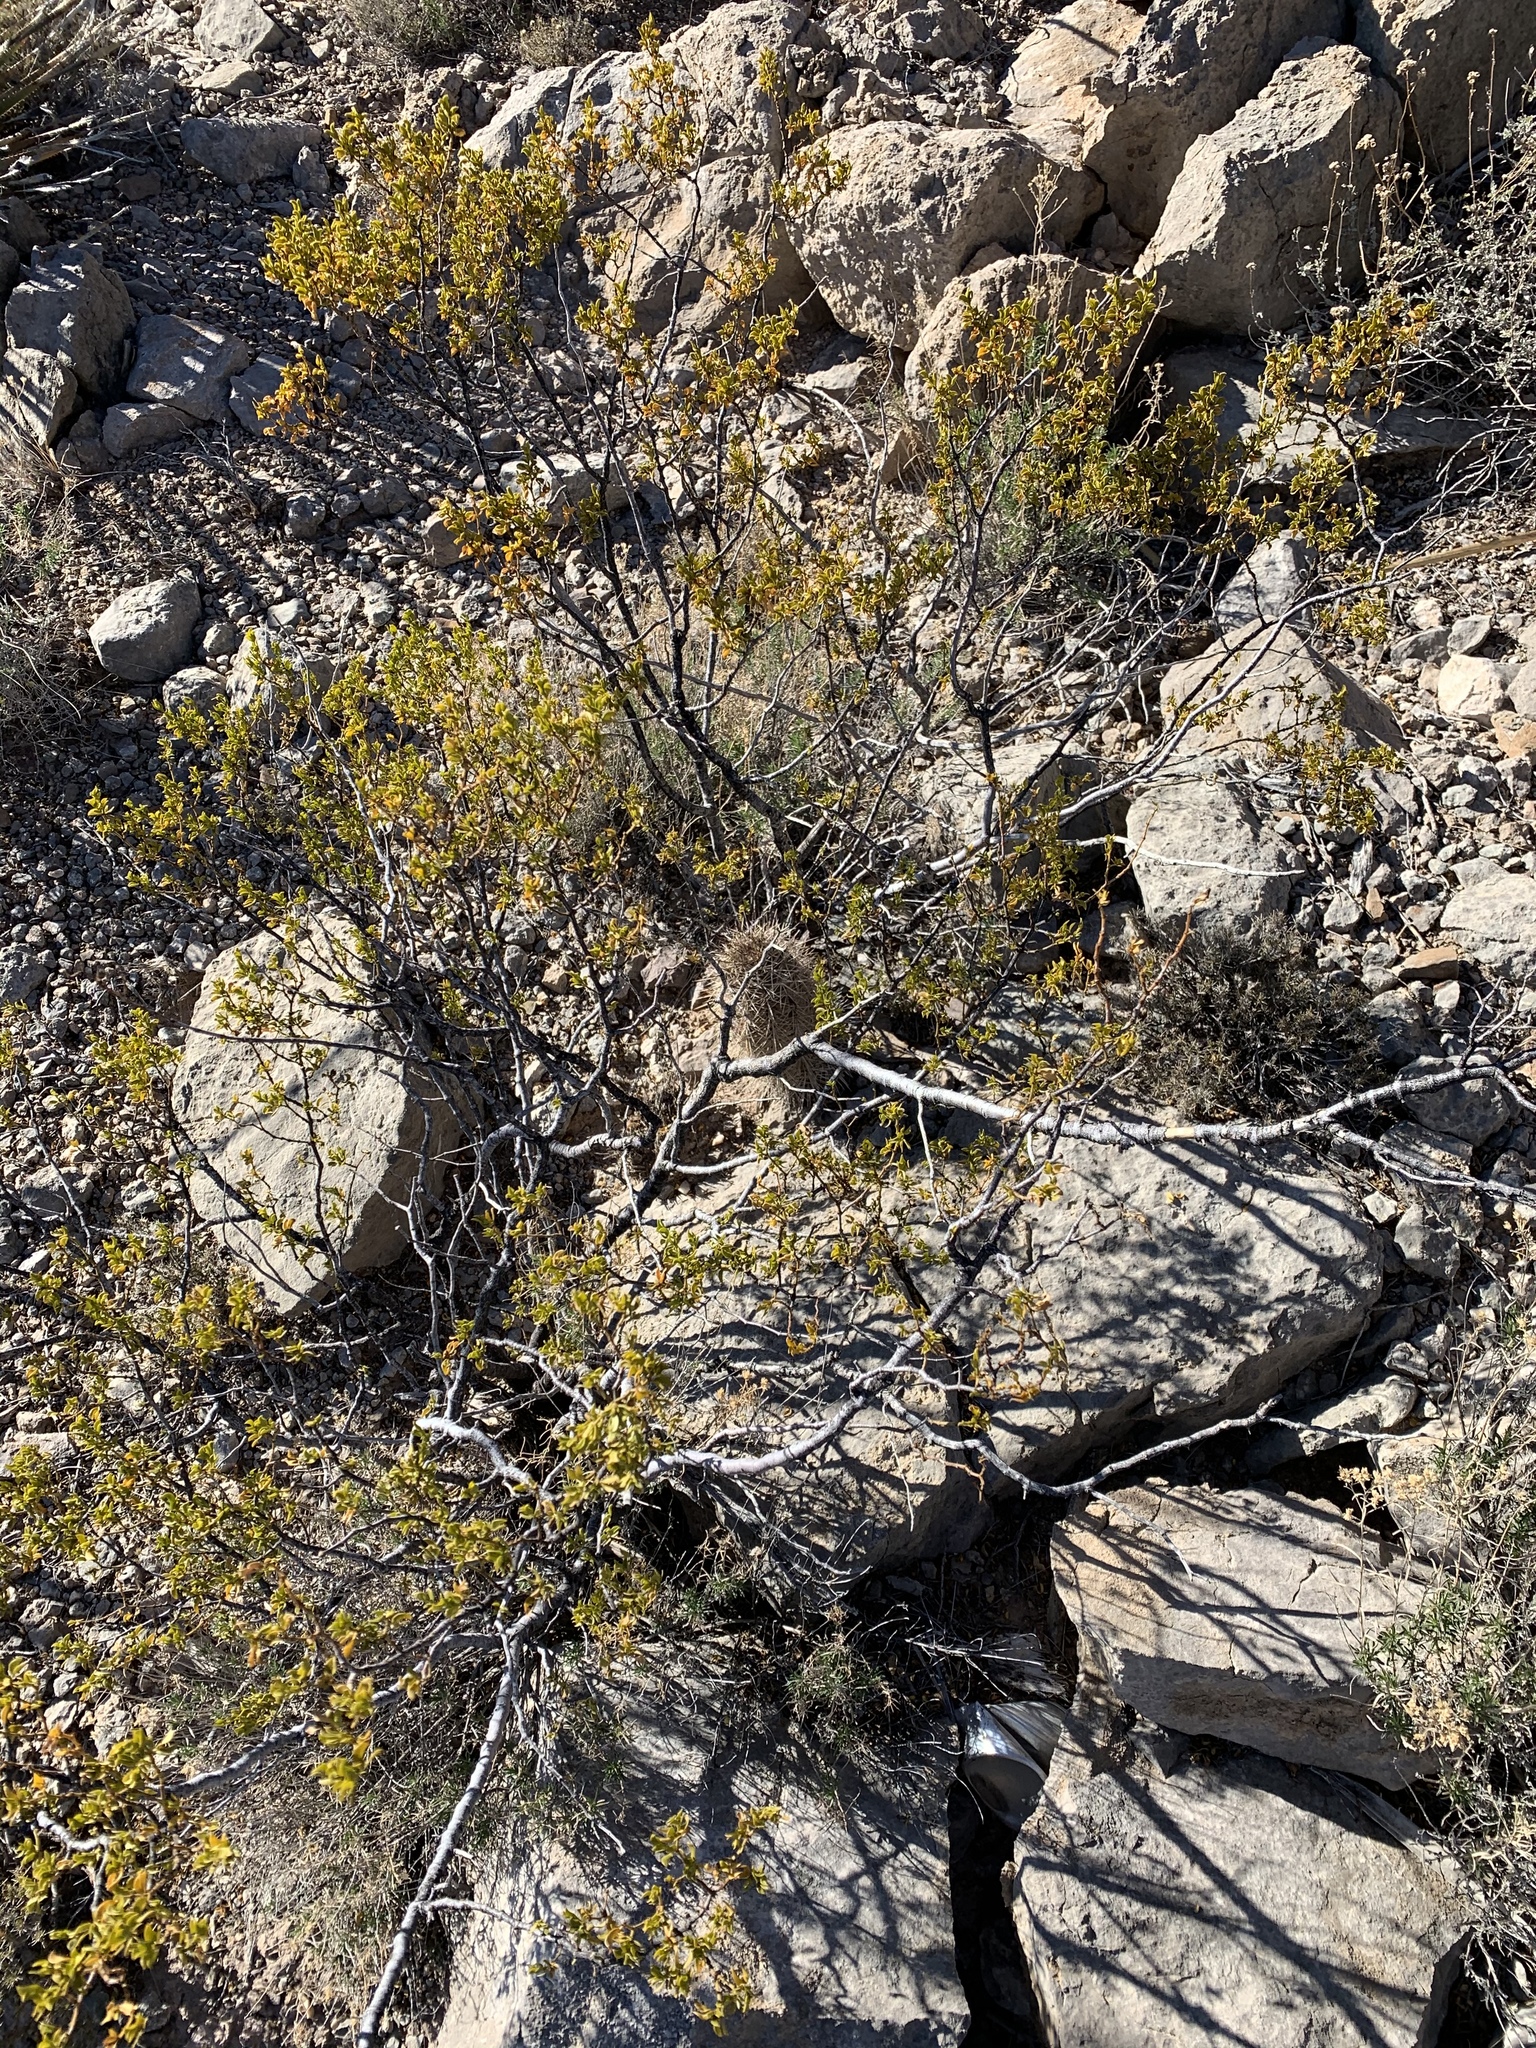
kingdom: Plantae
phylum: Tracheophyta
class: Magnoliopsida
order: Zygophyllales
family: Zygophyllaceae
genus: Larrea
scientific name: Larrea tridentata
